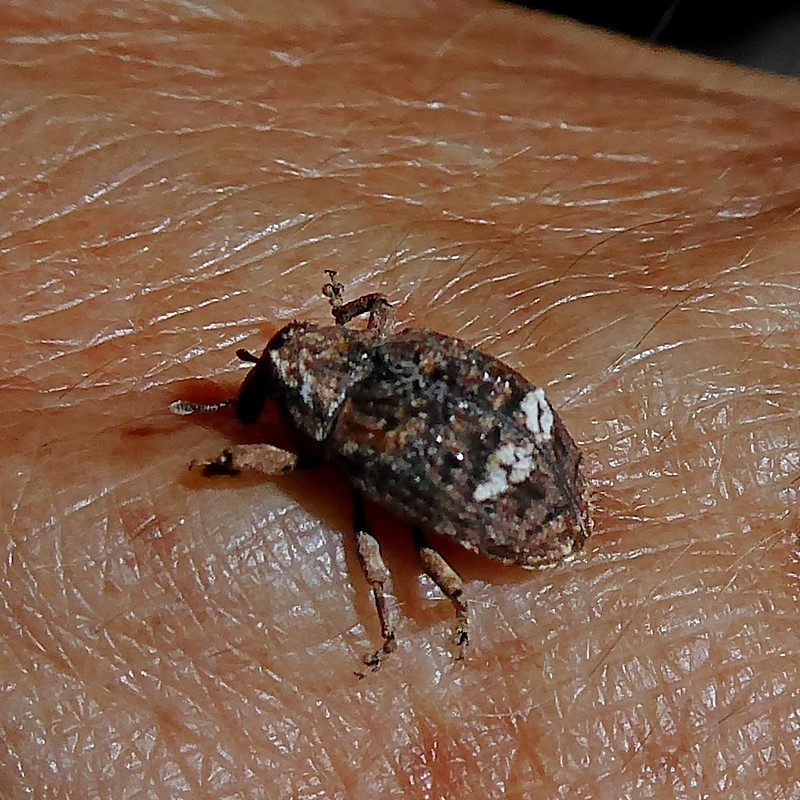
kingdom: Animalia
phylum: Arthropoda
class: Insecta
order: Coleoptera
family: Curculionidae
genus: Tepperia
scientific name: Tepperia sterculiae
